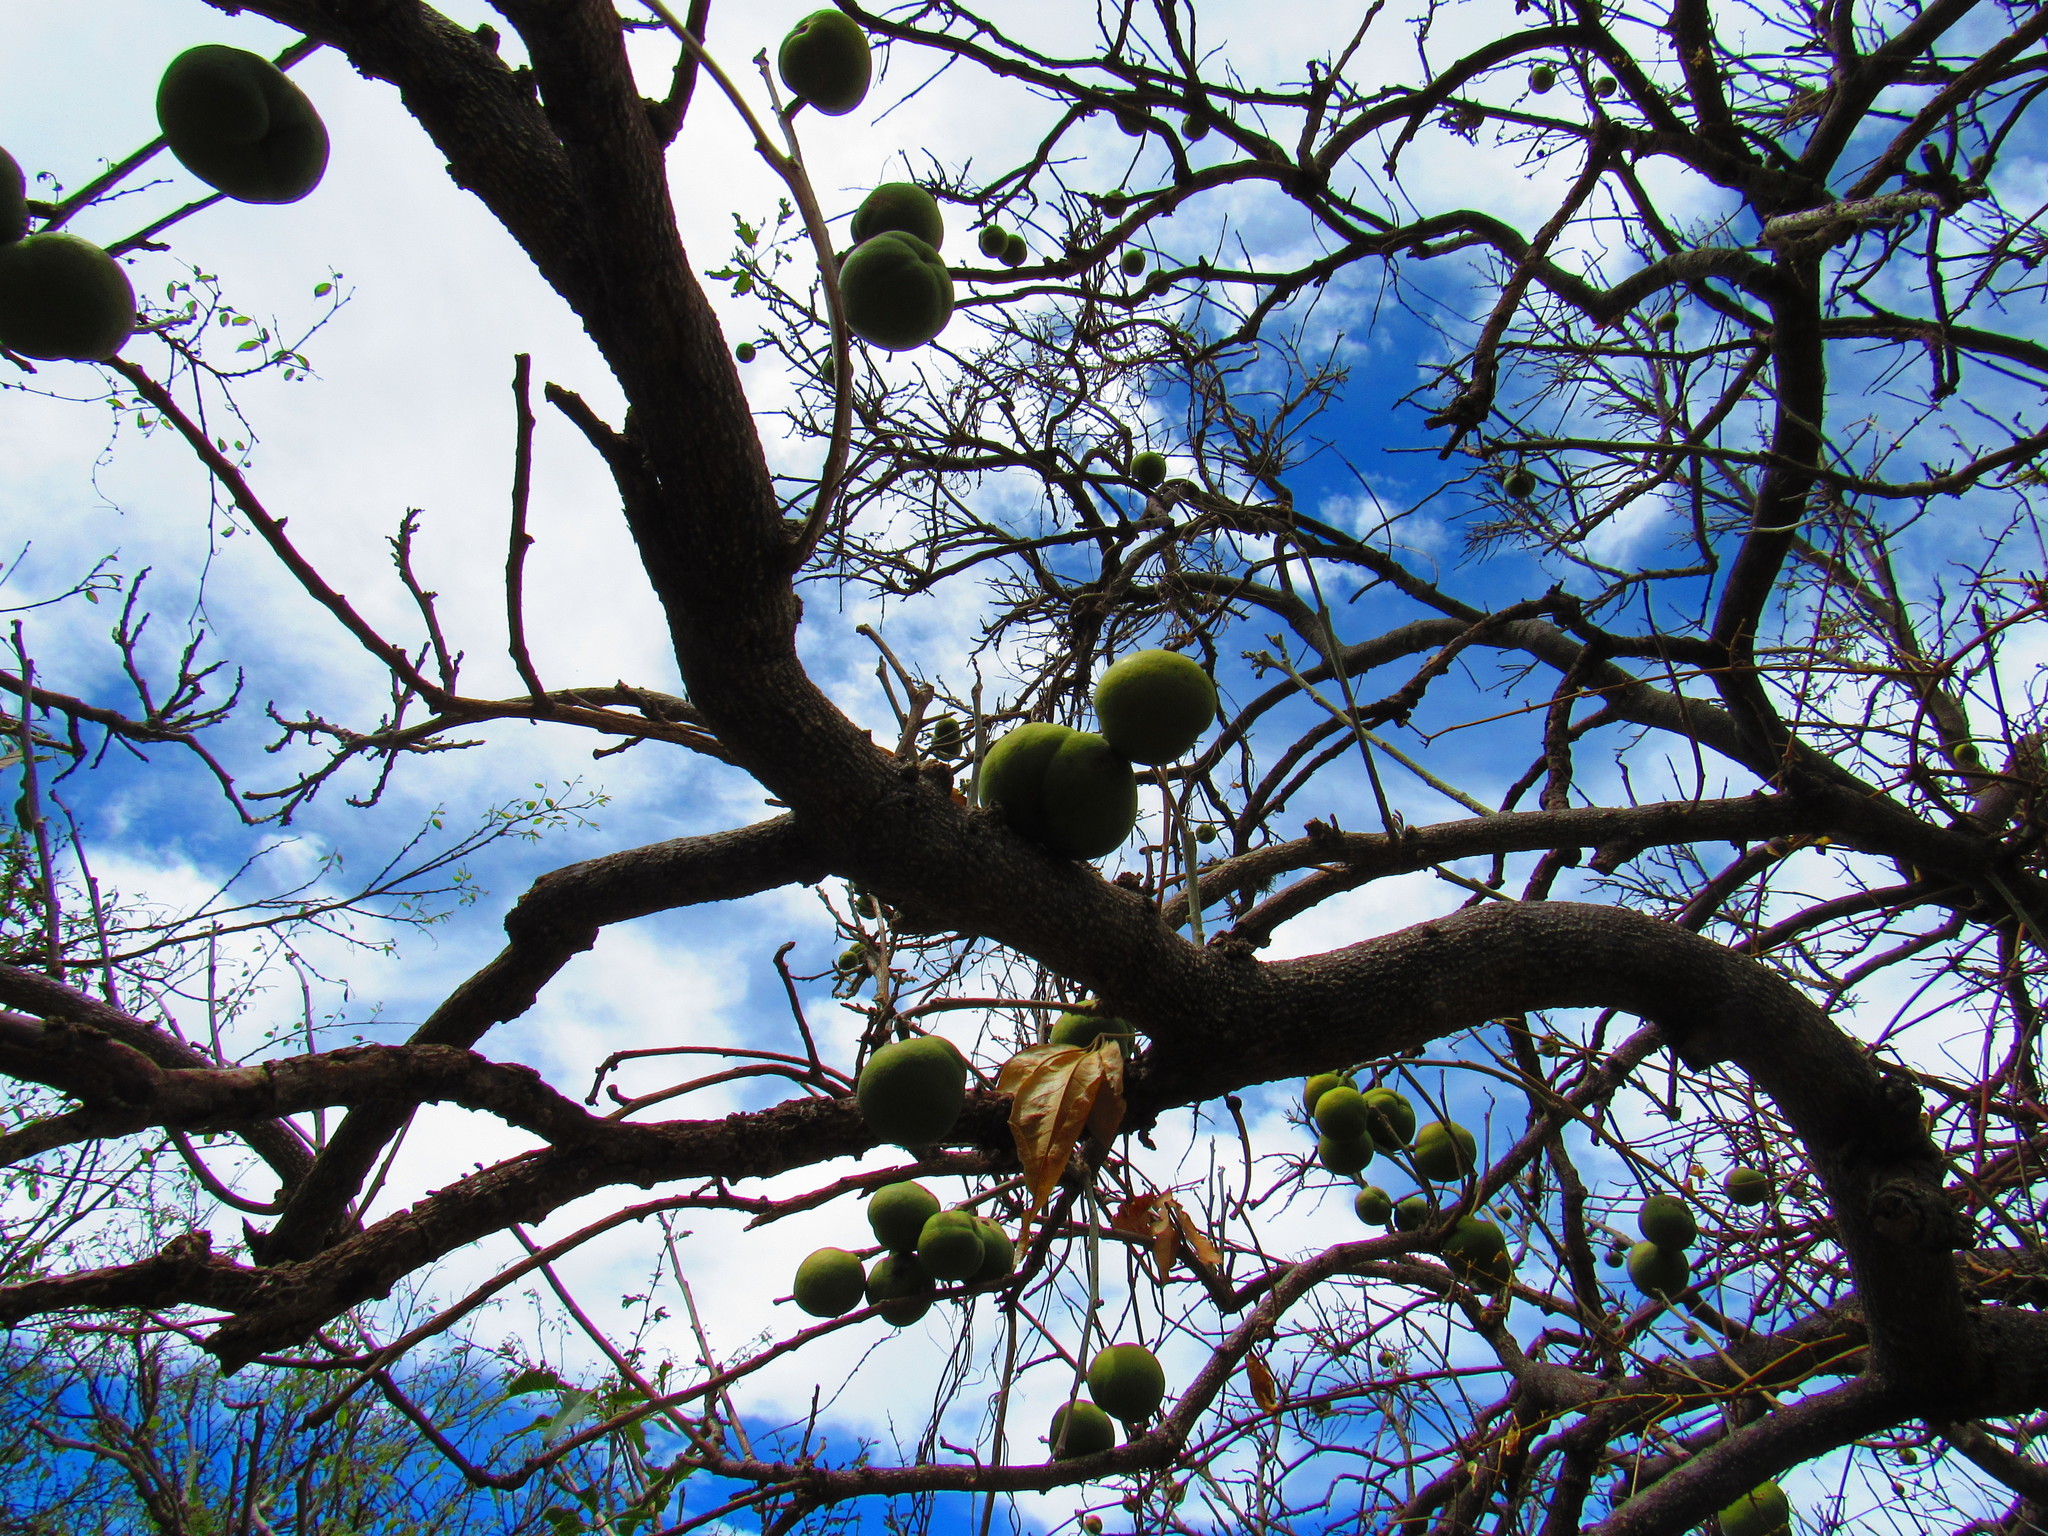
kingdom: Plantae
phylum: Tracheophyta
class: Magnoliopsida
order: Sapindales
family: Rutaceae
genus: Casimiroa
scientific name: Casimiroa edulis
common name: Mexican-apple
